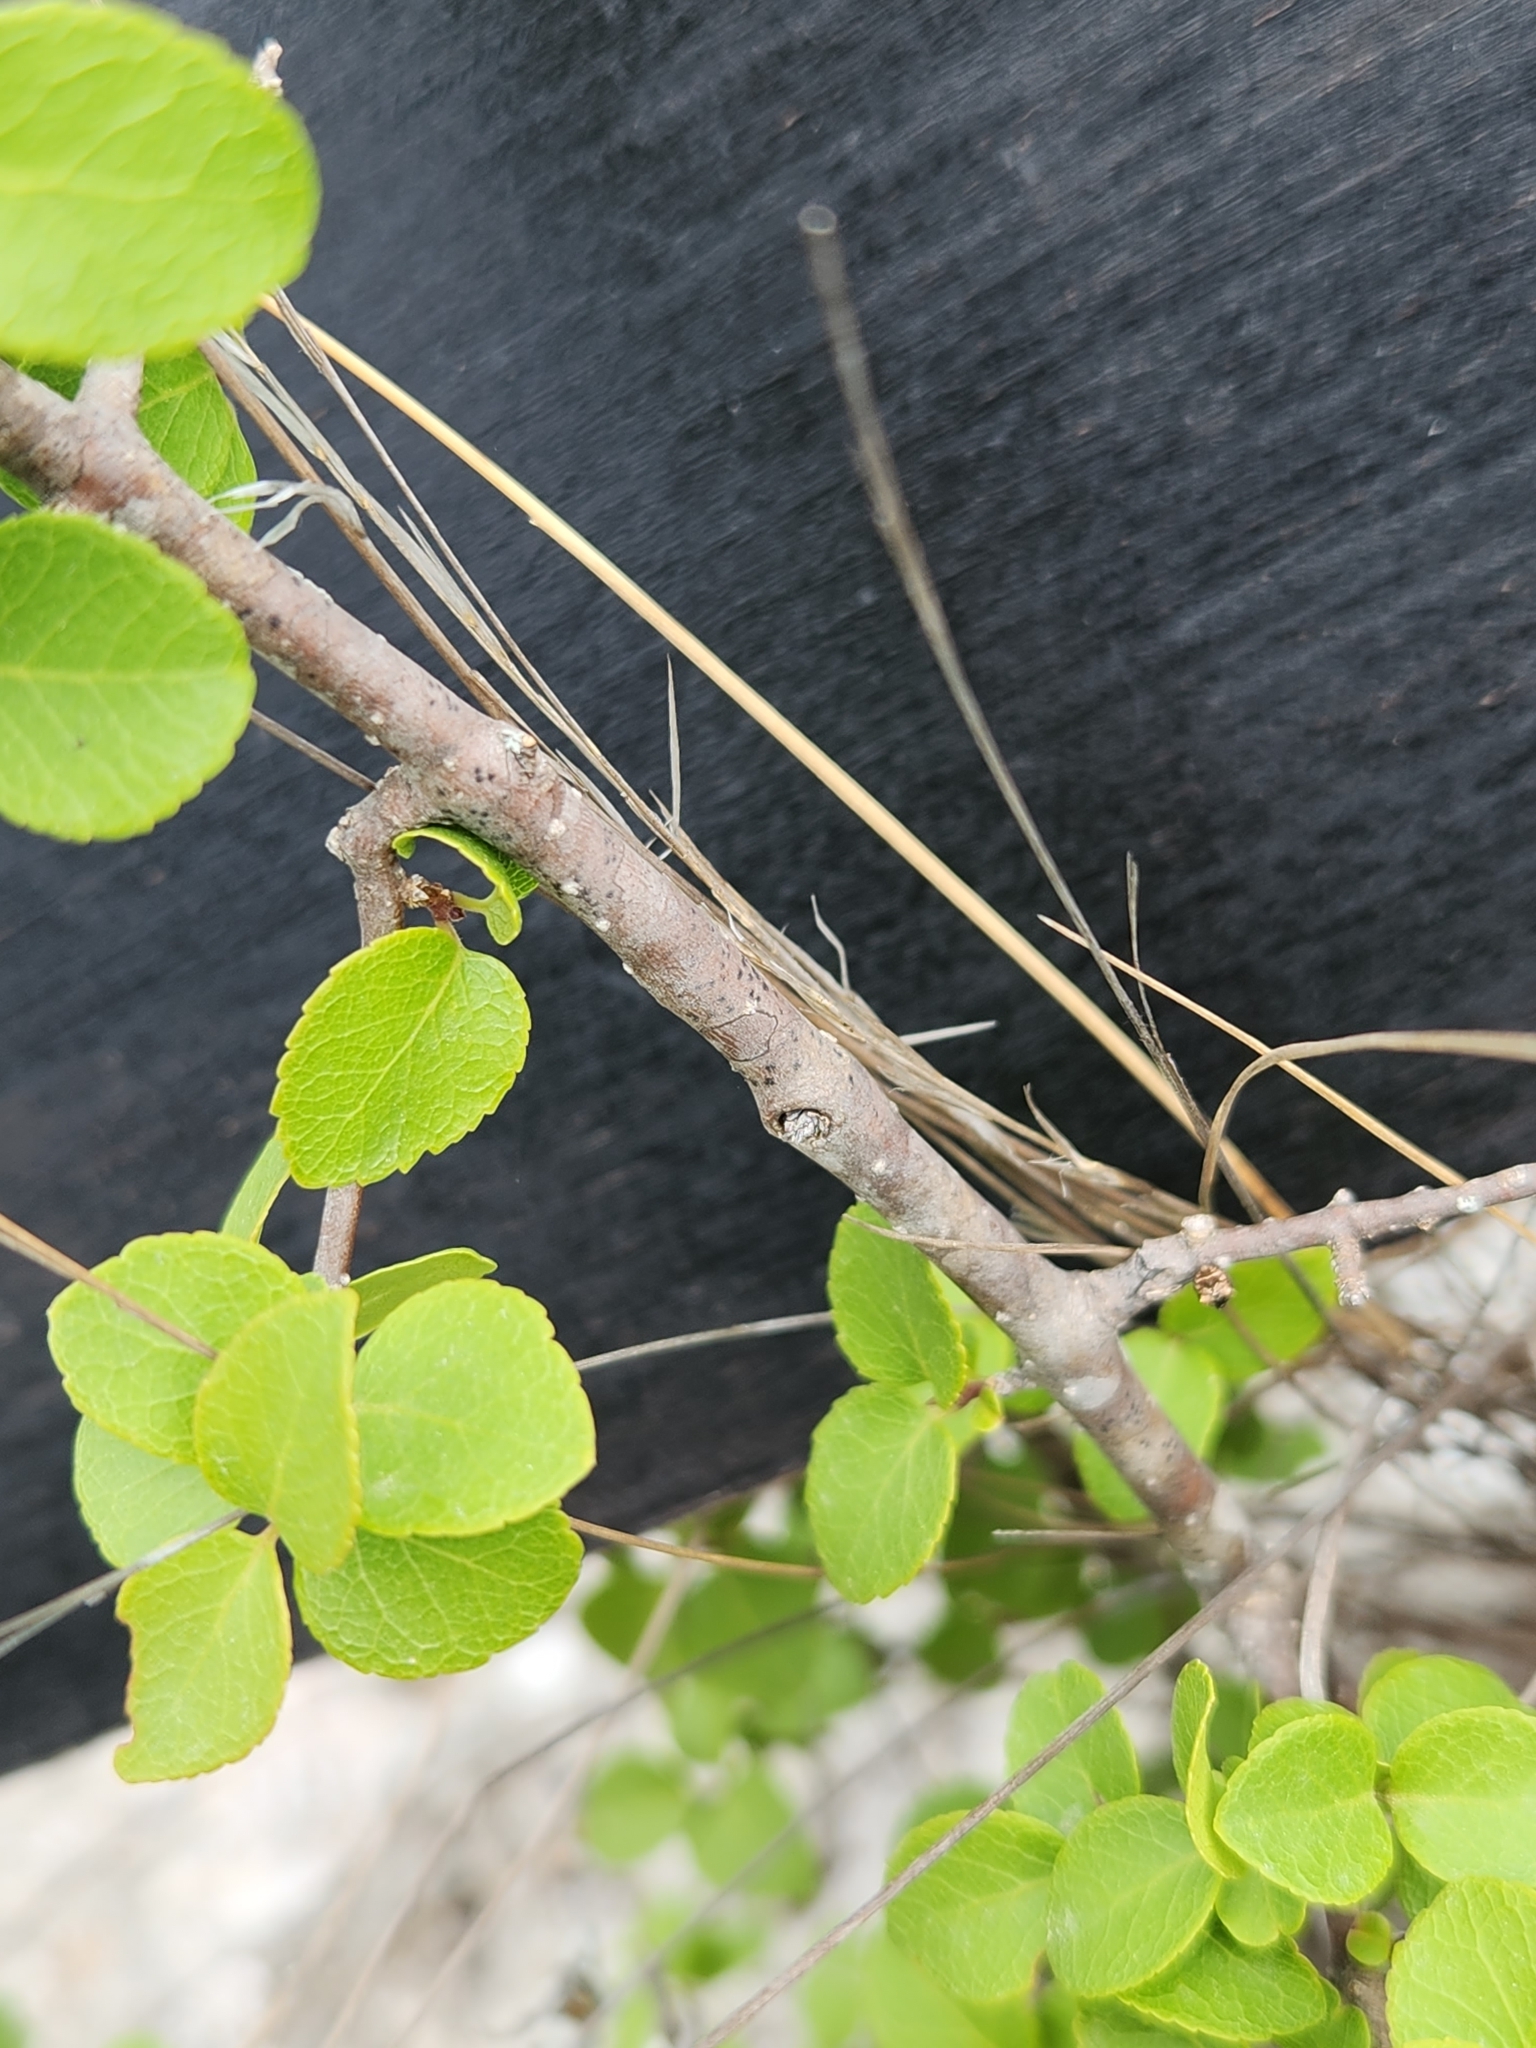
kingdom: Plantae
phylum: Tracheophyta
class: Magnoliopsida
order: Lamiales
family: Oleaceae
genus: Forestiera
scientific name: Forestiera reticulata
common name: Netleaf swamp-privet
